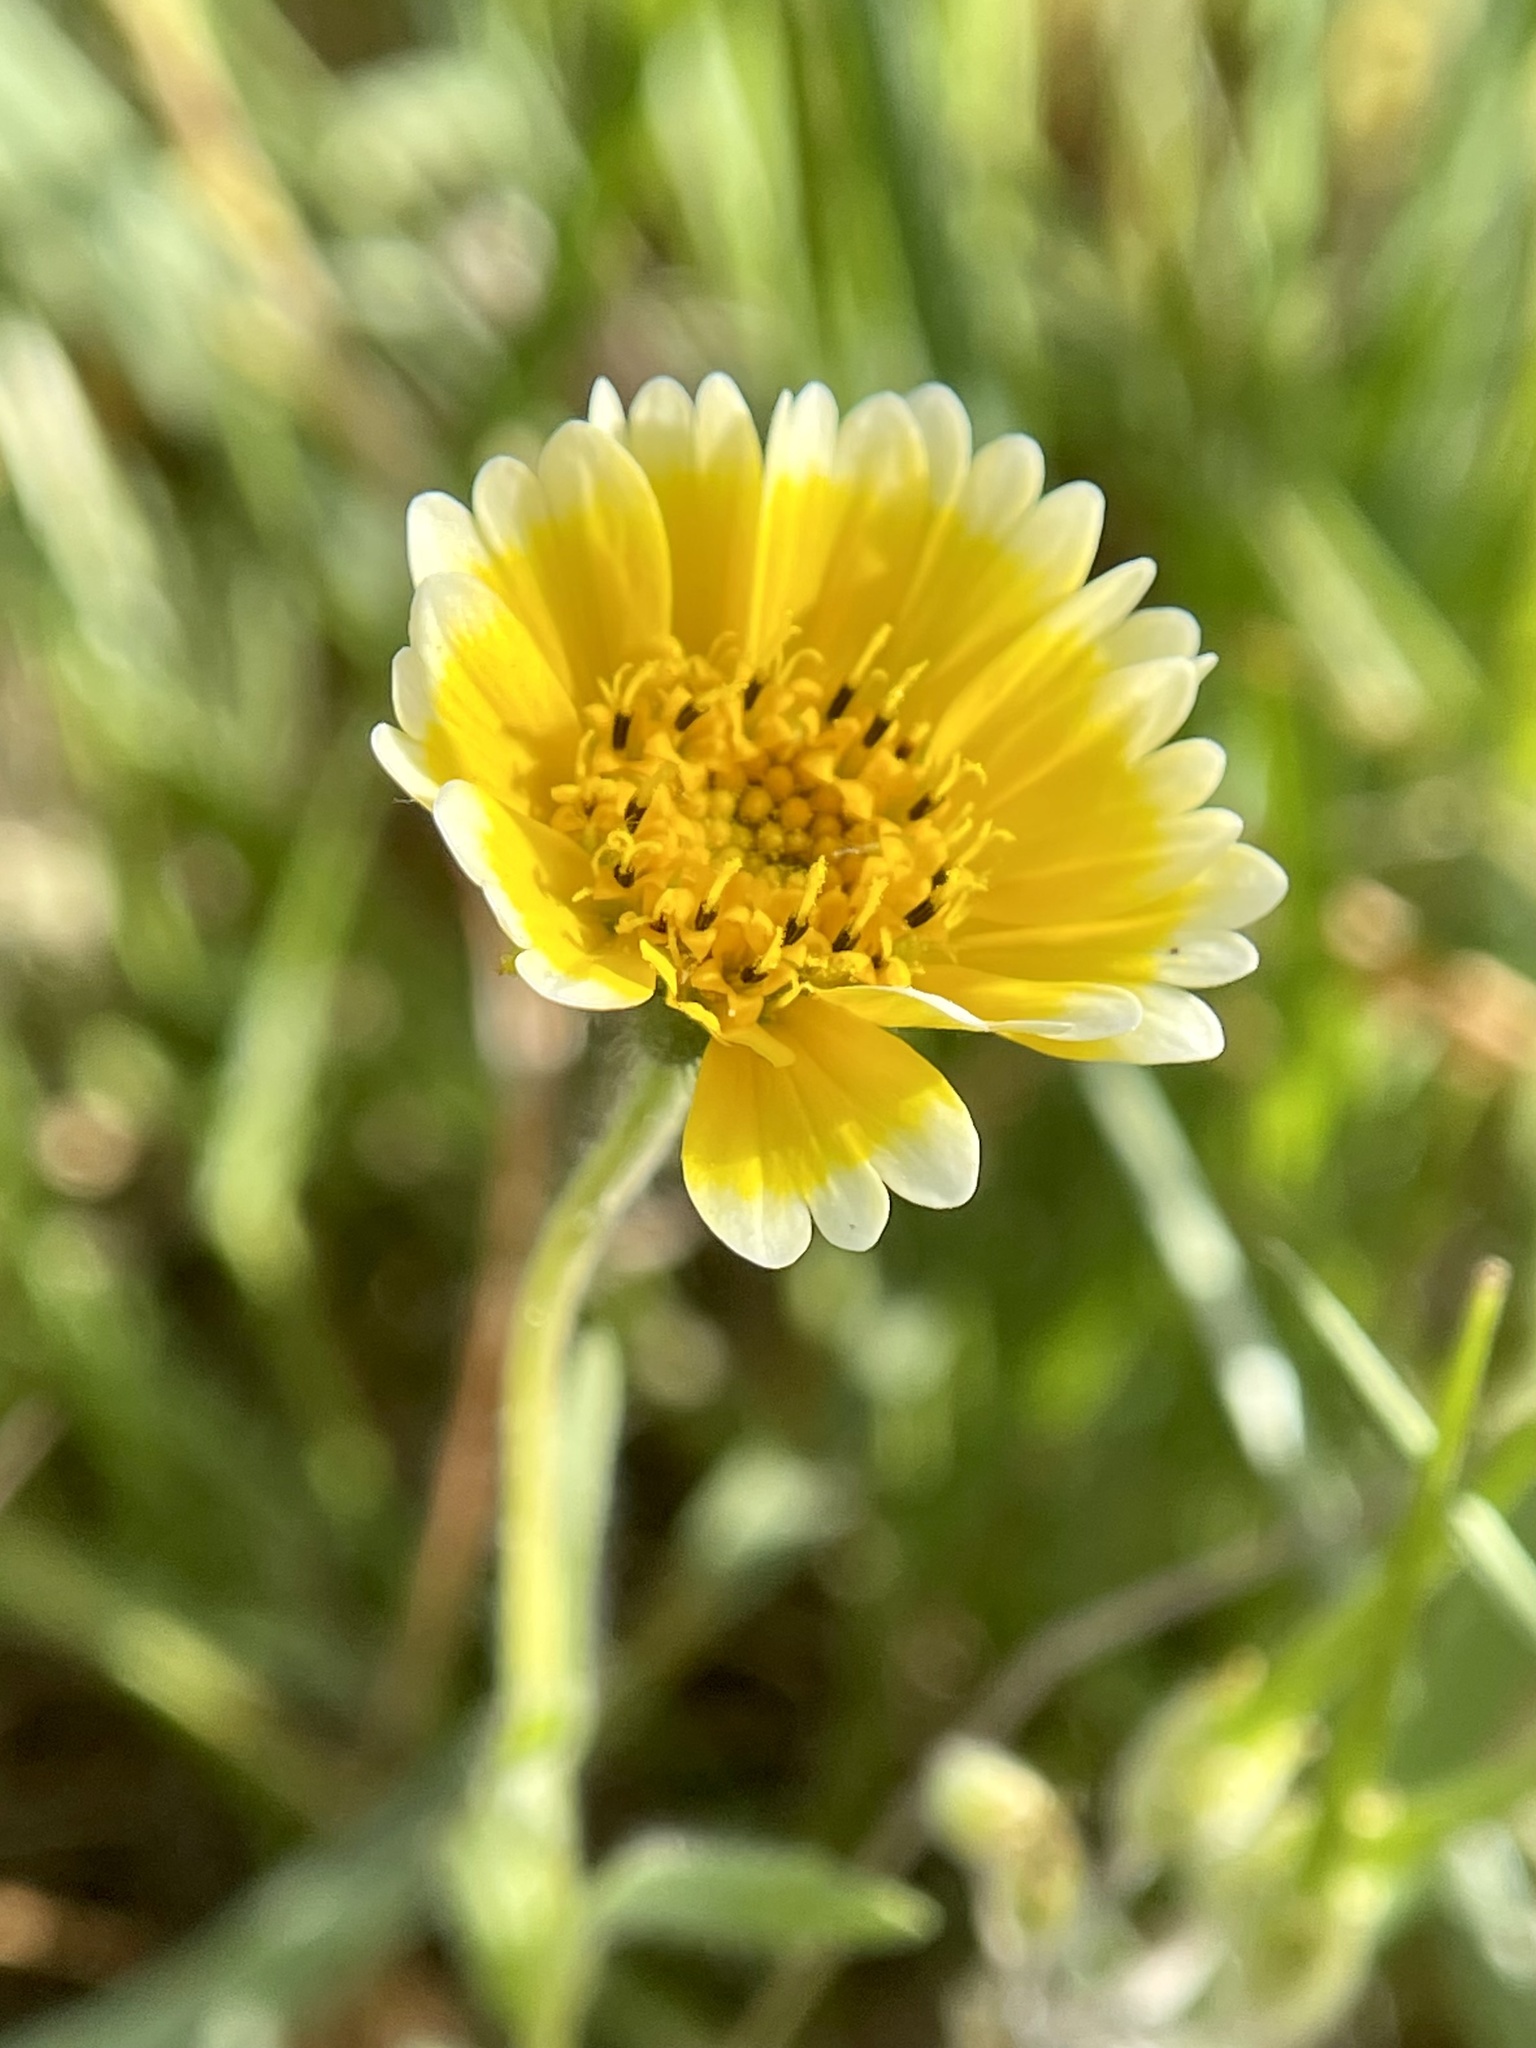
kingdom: Plantae
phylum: Tracheophyta
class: Magnoliopsida
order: Asterales
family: Asteraceae
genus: Layia
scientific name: Layia platyglossa
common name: Tidy-tips
